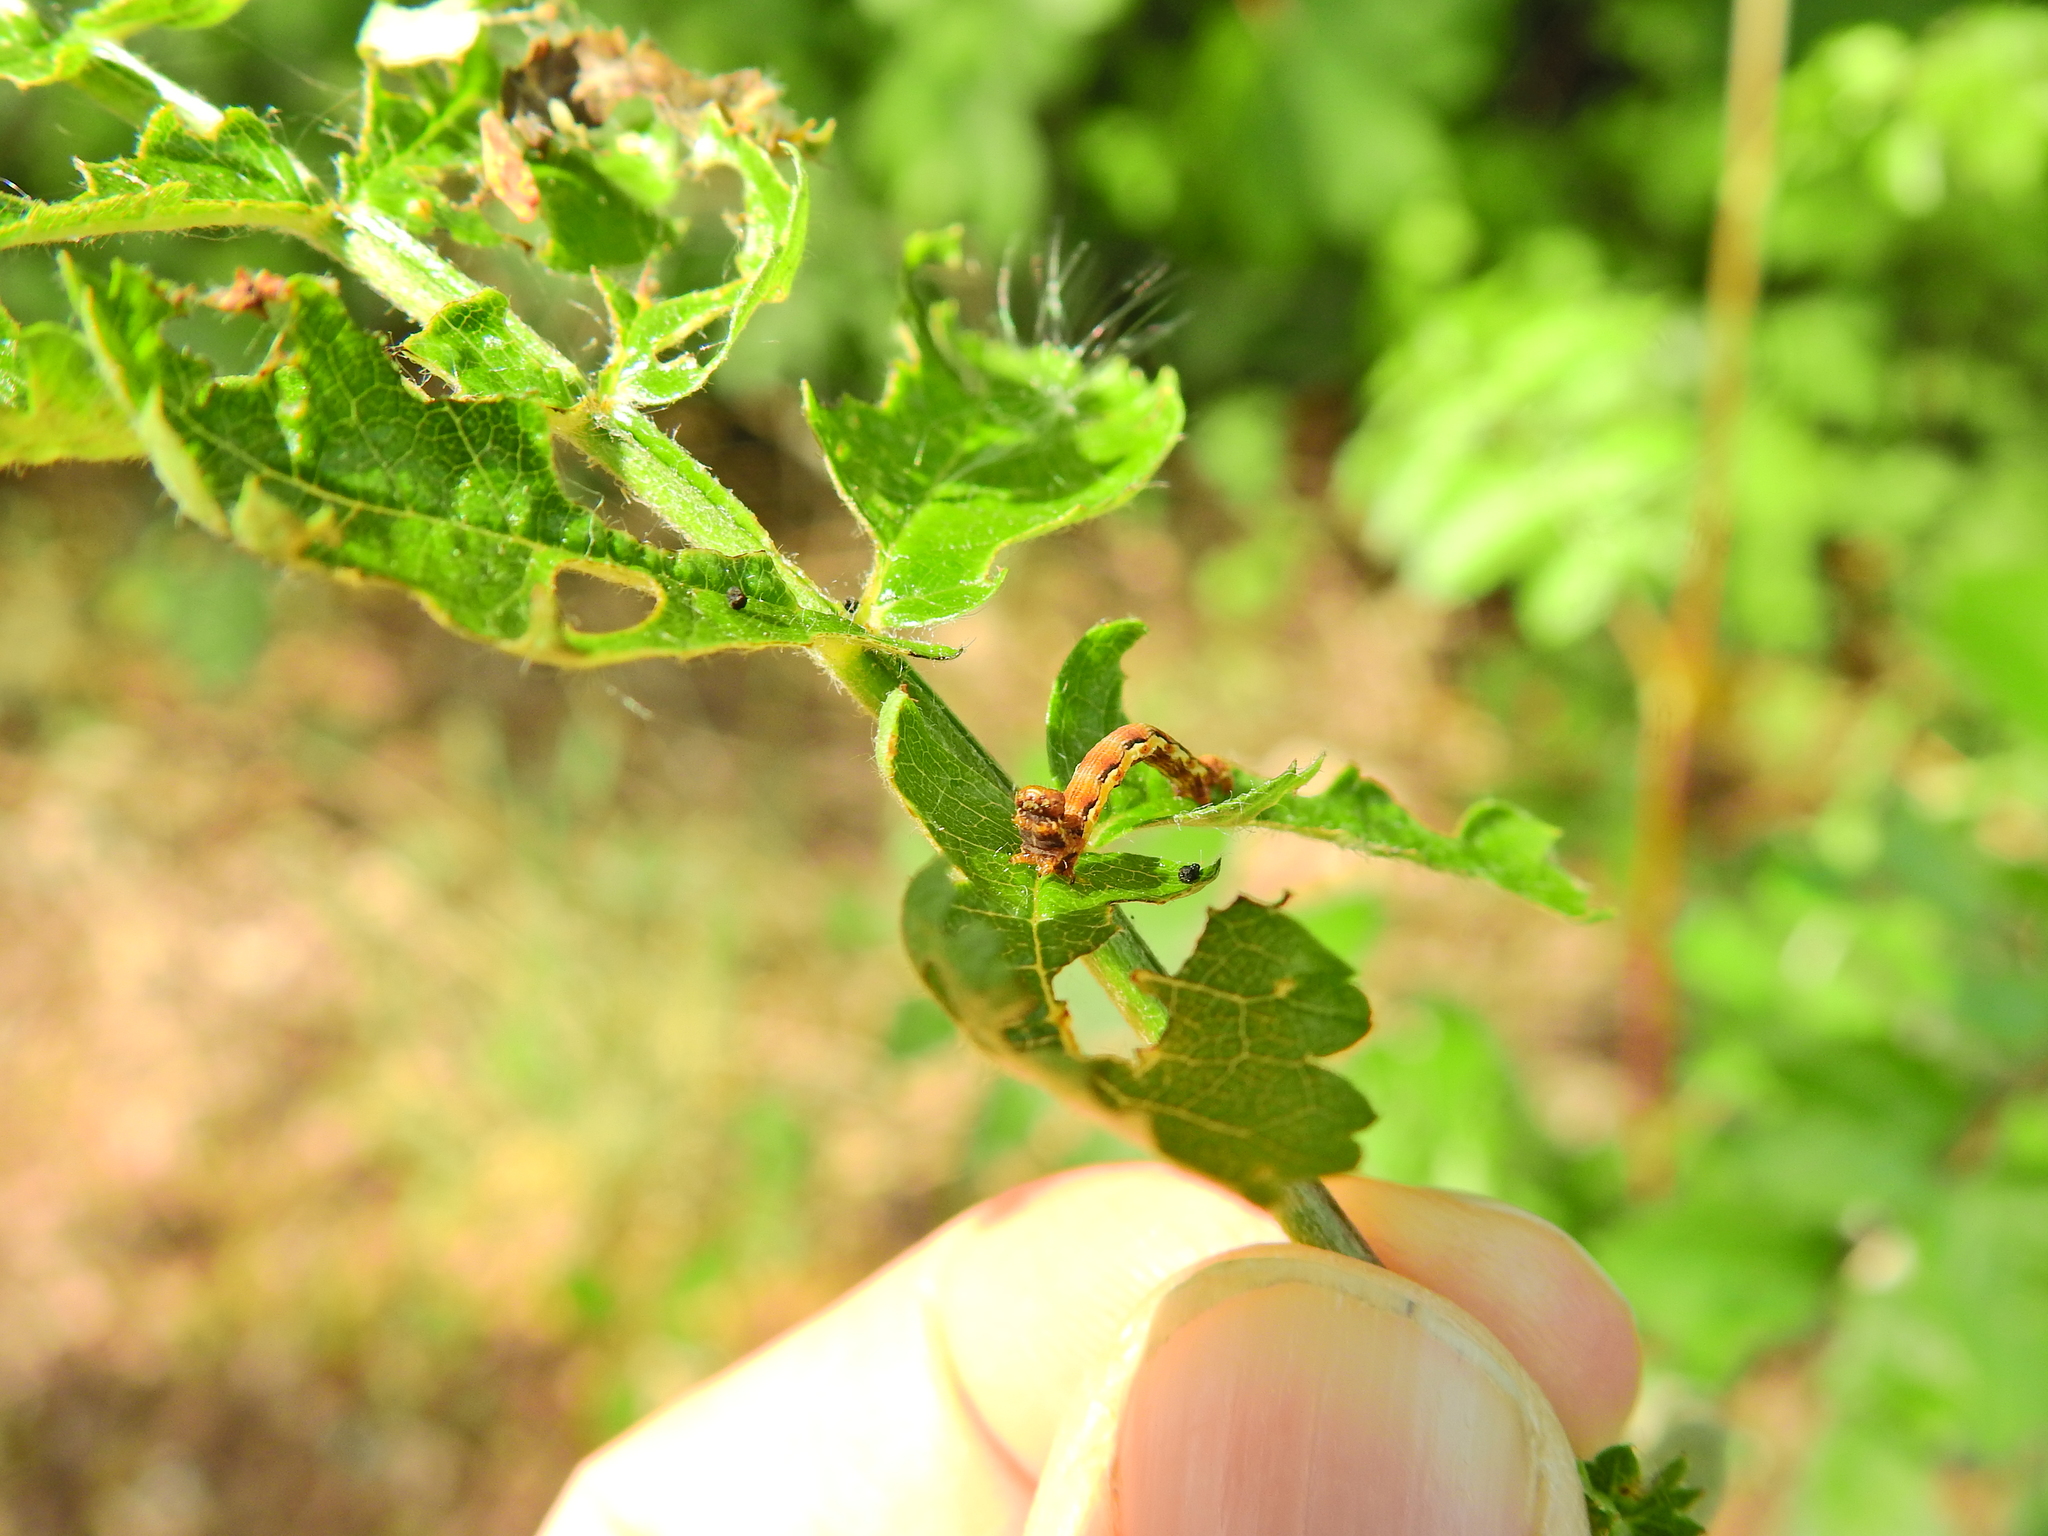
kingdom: Animalia
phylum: Arthropoda
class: Insecta
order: Lepidoptera
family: Geometridae
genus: Erannis
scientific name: Erannis defoliaria
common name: Mottled umber
